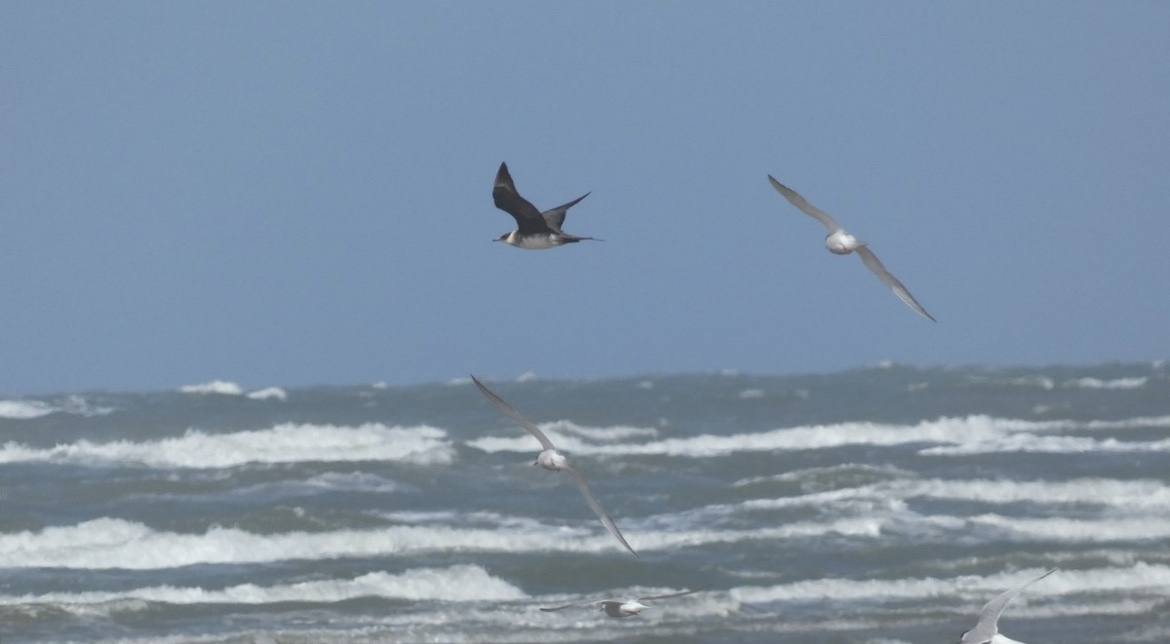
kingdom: Animalia
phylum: Chordata
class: Aves
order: Charadriiformes
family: Stercorariidae
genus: Stercorarius
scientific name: Stercorarius parasiticus
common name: Parasitic jaeger
